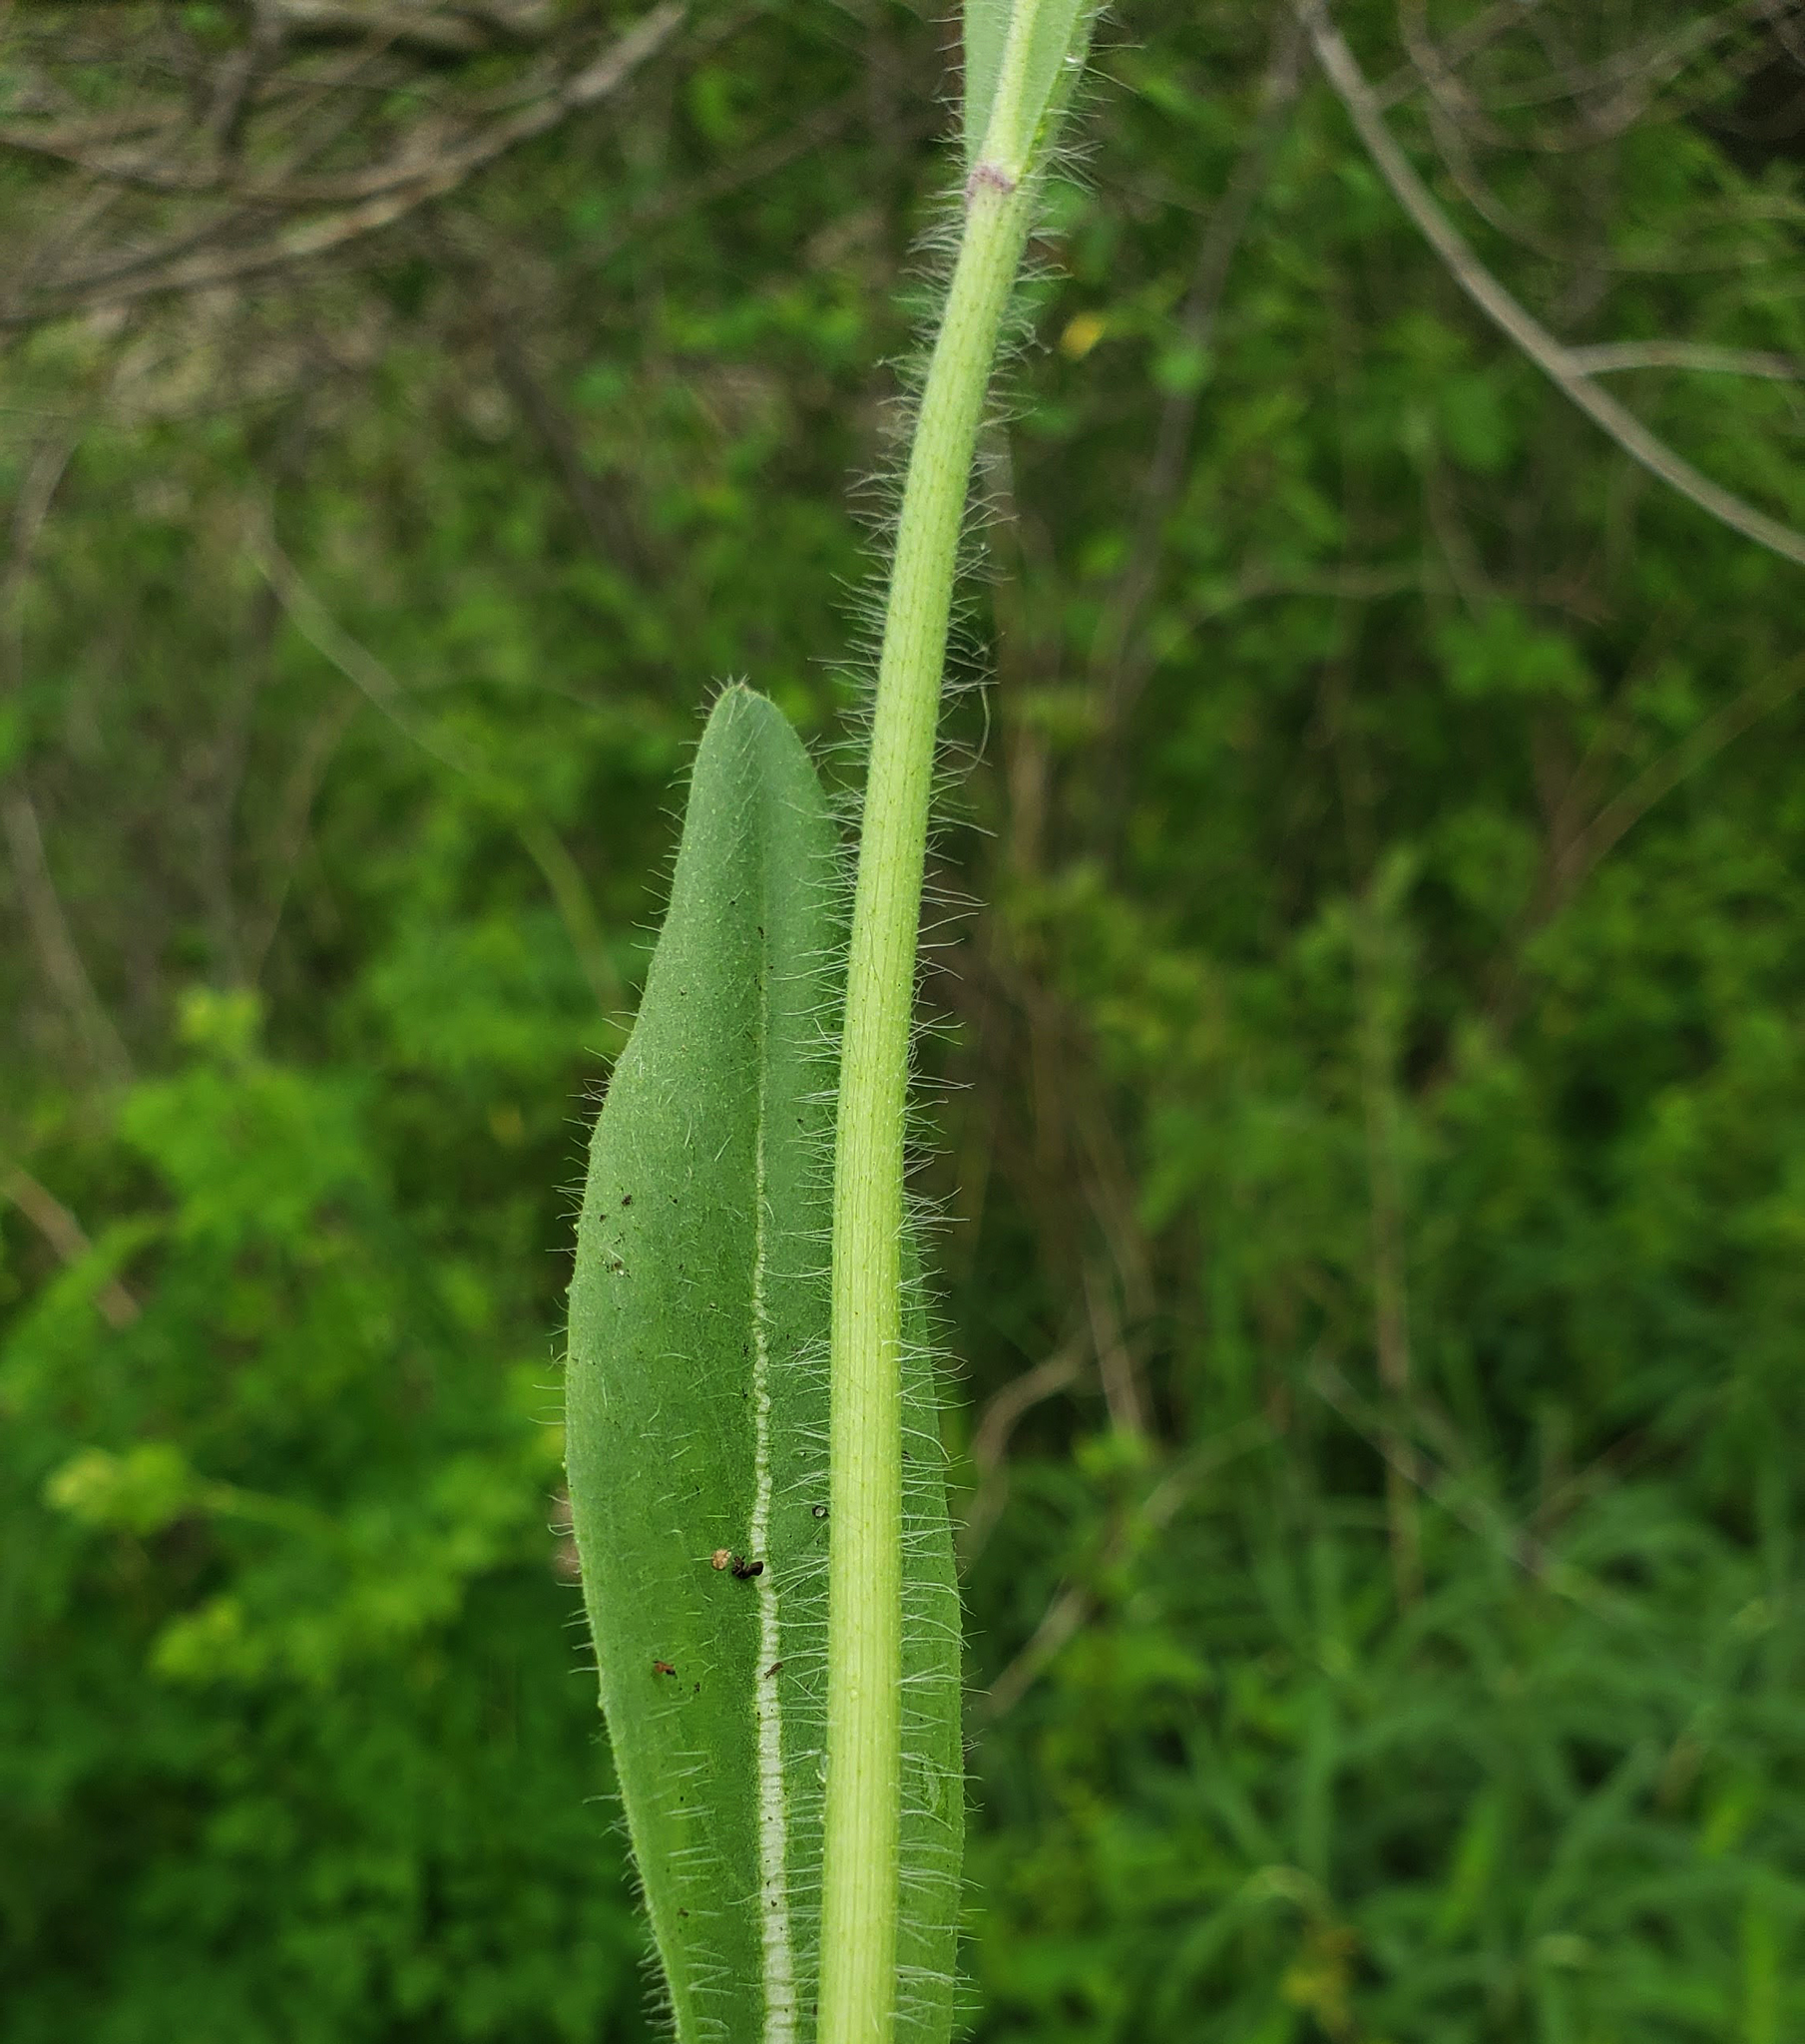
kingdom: Plantae
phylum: Tracheophyta
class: Magnoliopsida
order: Asterales
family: Asteraceae
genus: Pilosella
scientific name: Pilosella caespitosa
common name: Yellow fox-and-cubs
